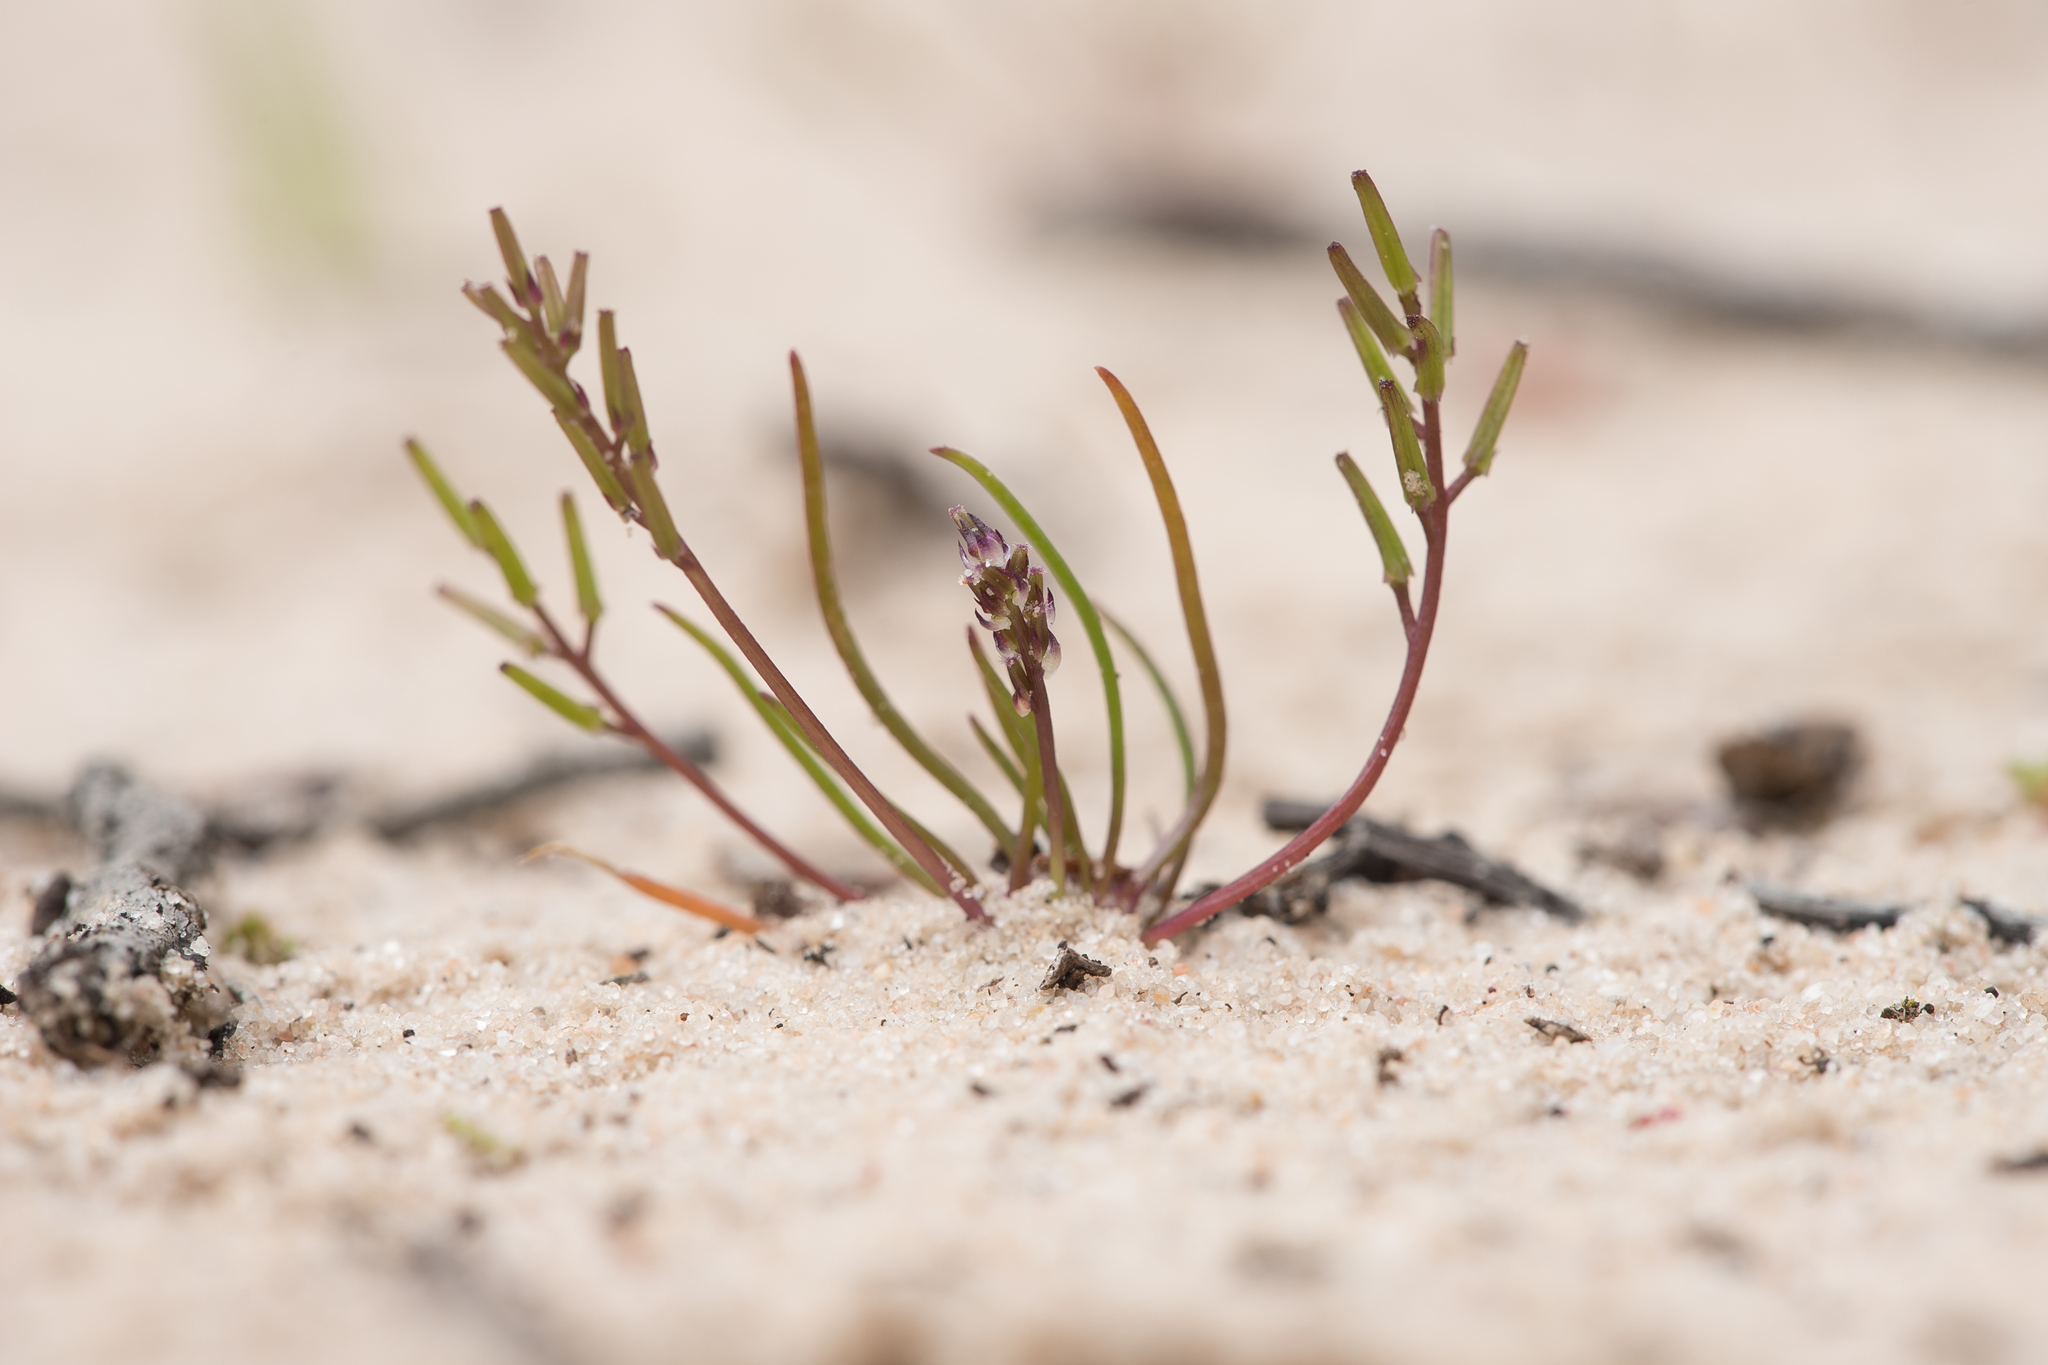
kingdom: Plantae
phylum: Tracheophyta
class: Liliopsida
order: Alismatales
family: Juncaginaceae
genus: Triglochin
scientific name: Triglochin nana
